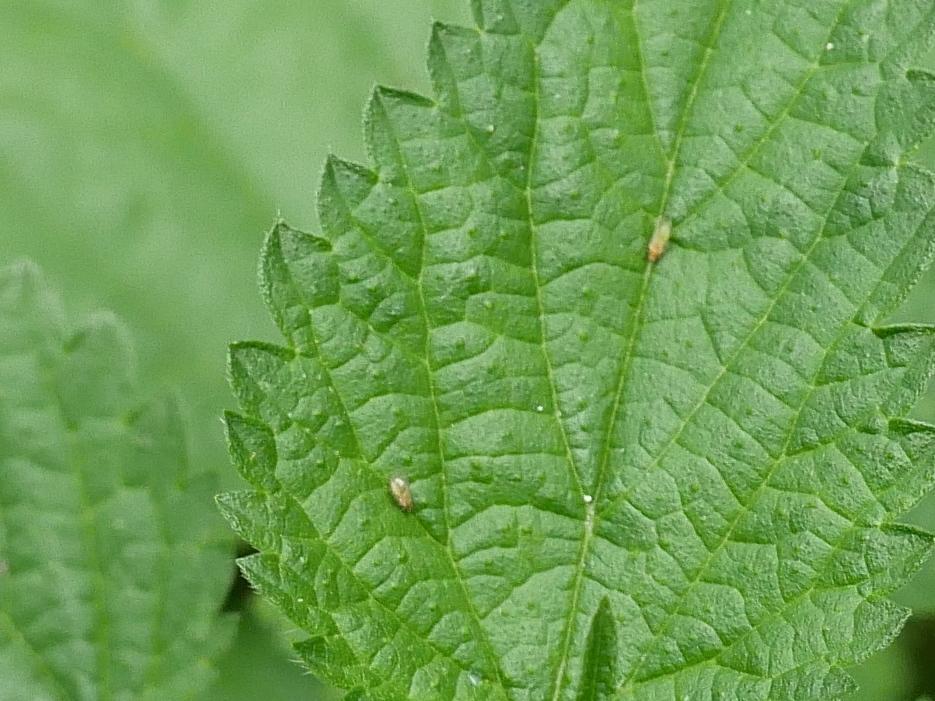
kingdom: Plantae
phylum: Tracheophyta
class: Magnoliopsida
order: Rosales
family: Urticaceae
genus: Urtica
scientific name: Urtica dioica
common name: Common nettle
